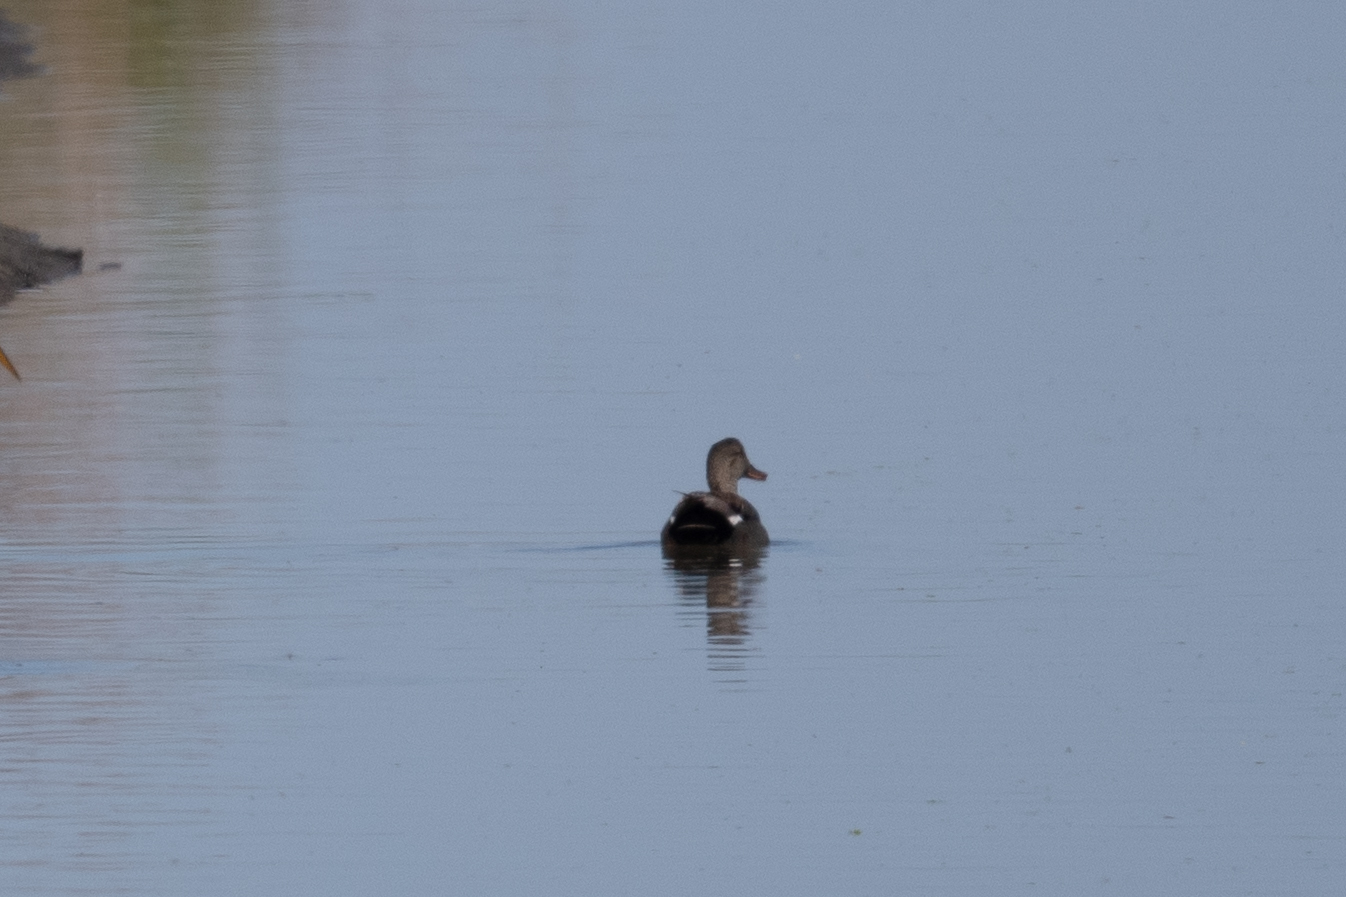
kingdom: Animalia
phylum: Chordata
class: Aves
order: Anseriformes
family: Anatidae
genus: Mareca
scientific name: Mareca strepera
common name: Gadwall
